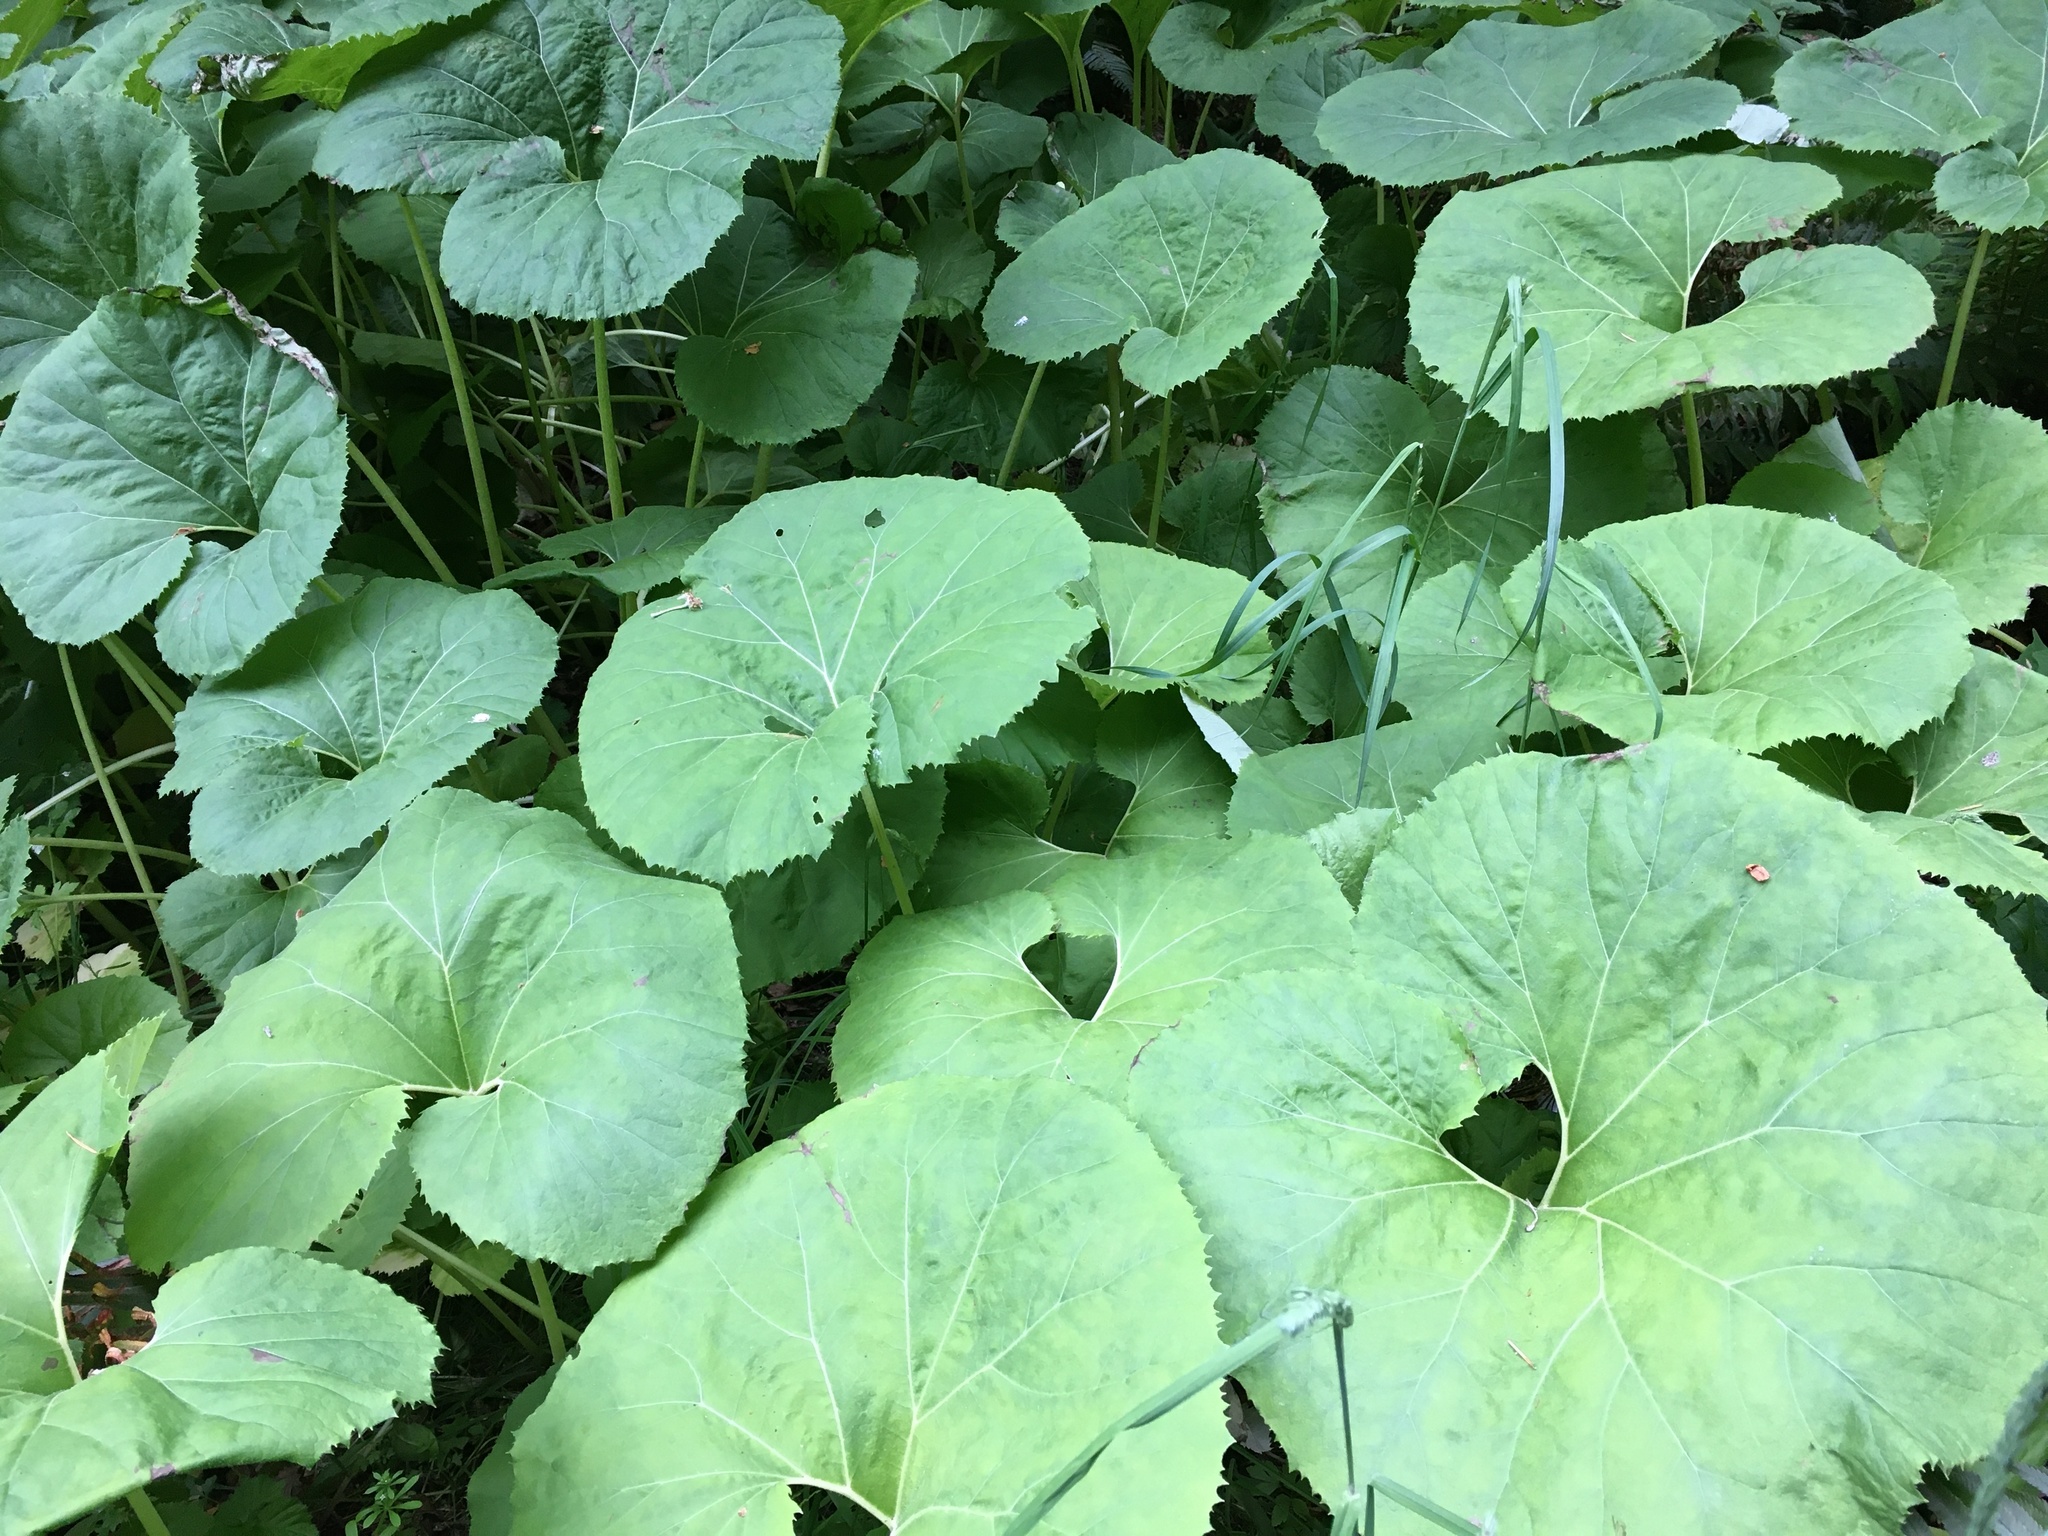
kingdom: Plantae
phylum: Tracheophyta
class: Magnoliopsida
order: Asterales
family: Asteraceae
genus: Petasites
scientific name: Petasites japonicus
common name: Giant butterbur
